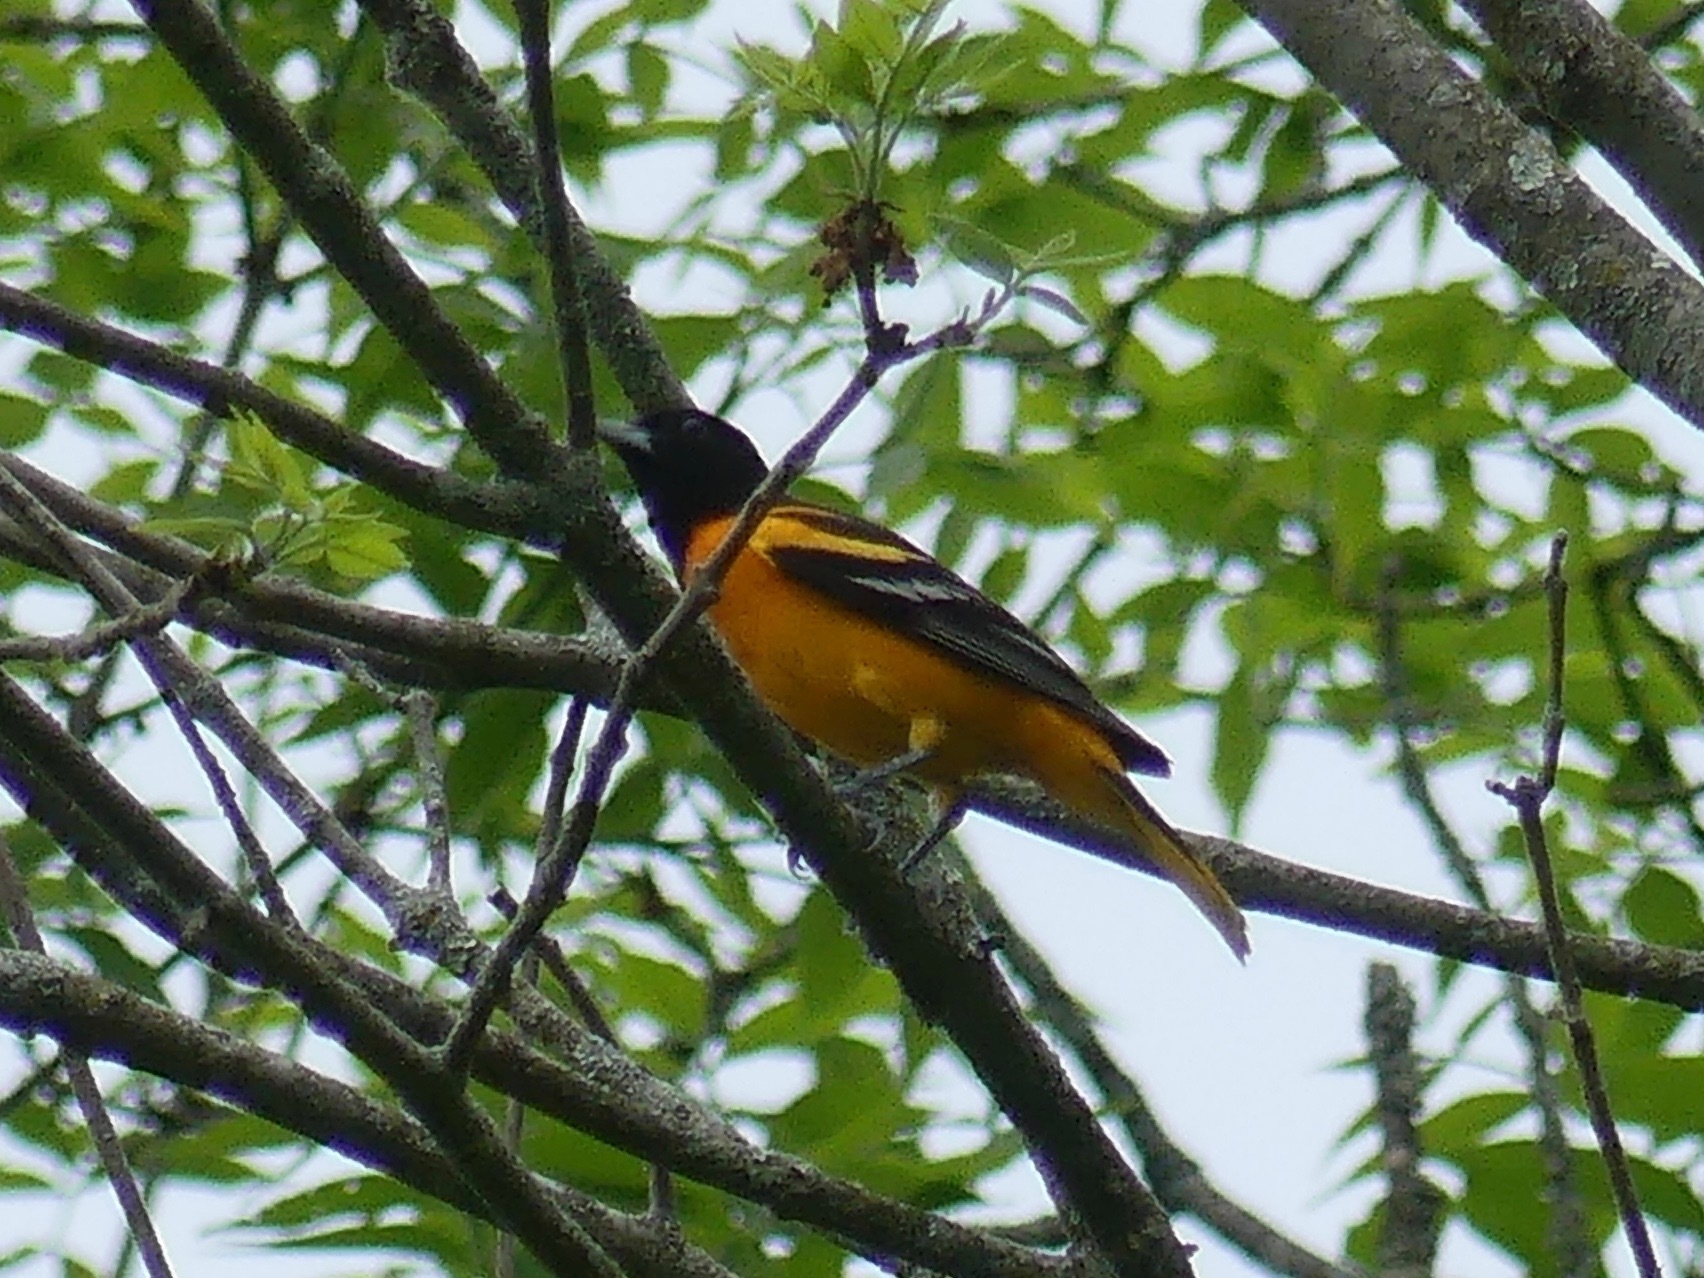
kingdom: Animalia
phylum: Chordata
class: Aves
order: Passeriformes
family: Icteridae
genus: Icterus
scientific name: Icterus galbula
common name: Baltimore oriole
